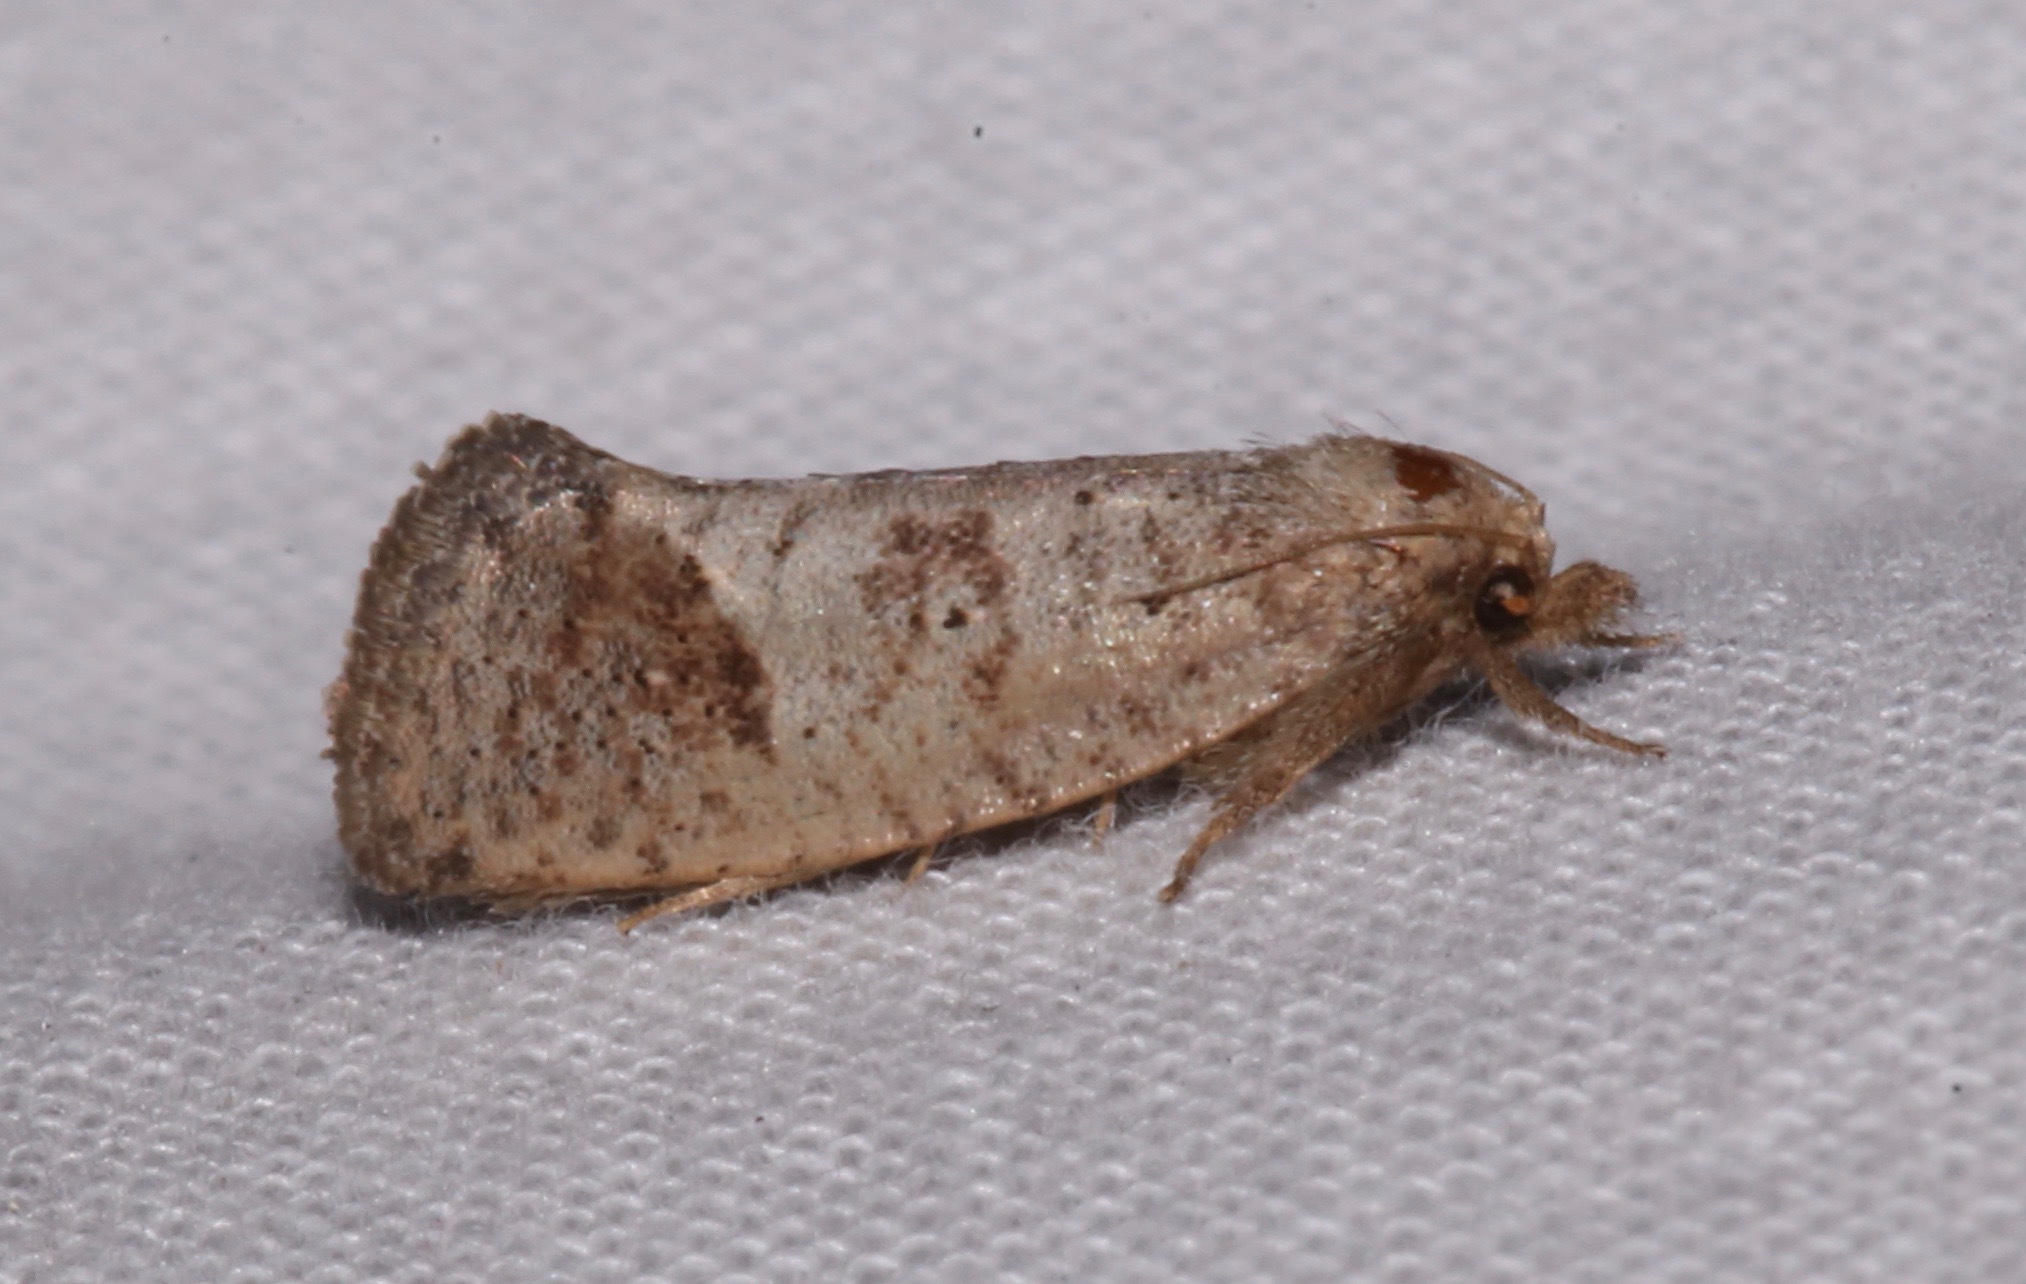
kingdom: Animalia
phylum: Arthropoda
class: Insecta
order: Lepidoptera
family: Tineidae
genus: Acrolophus
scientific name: Acrolophus texanella
